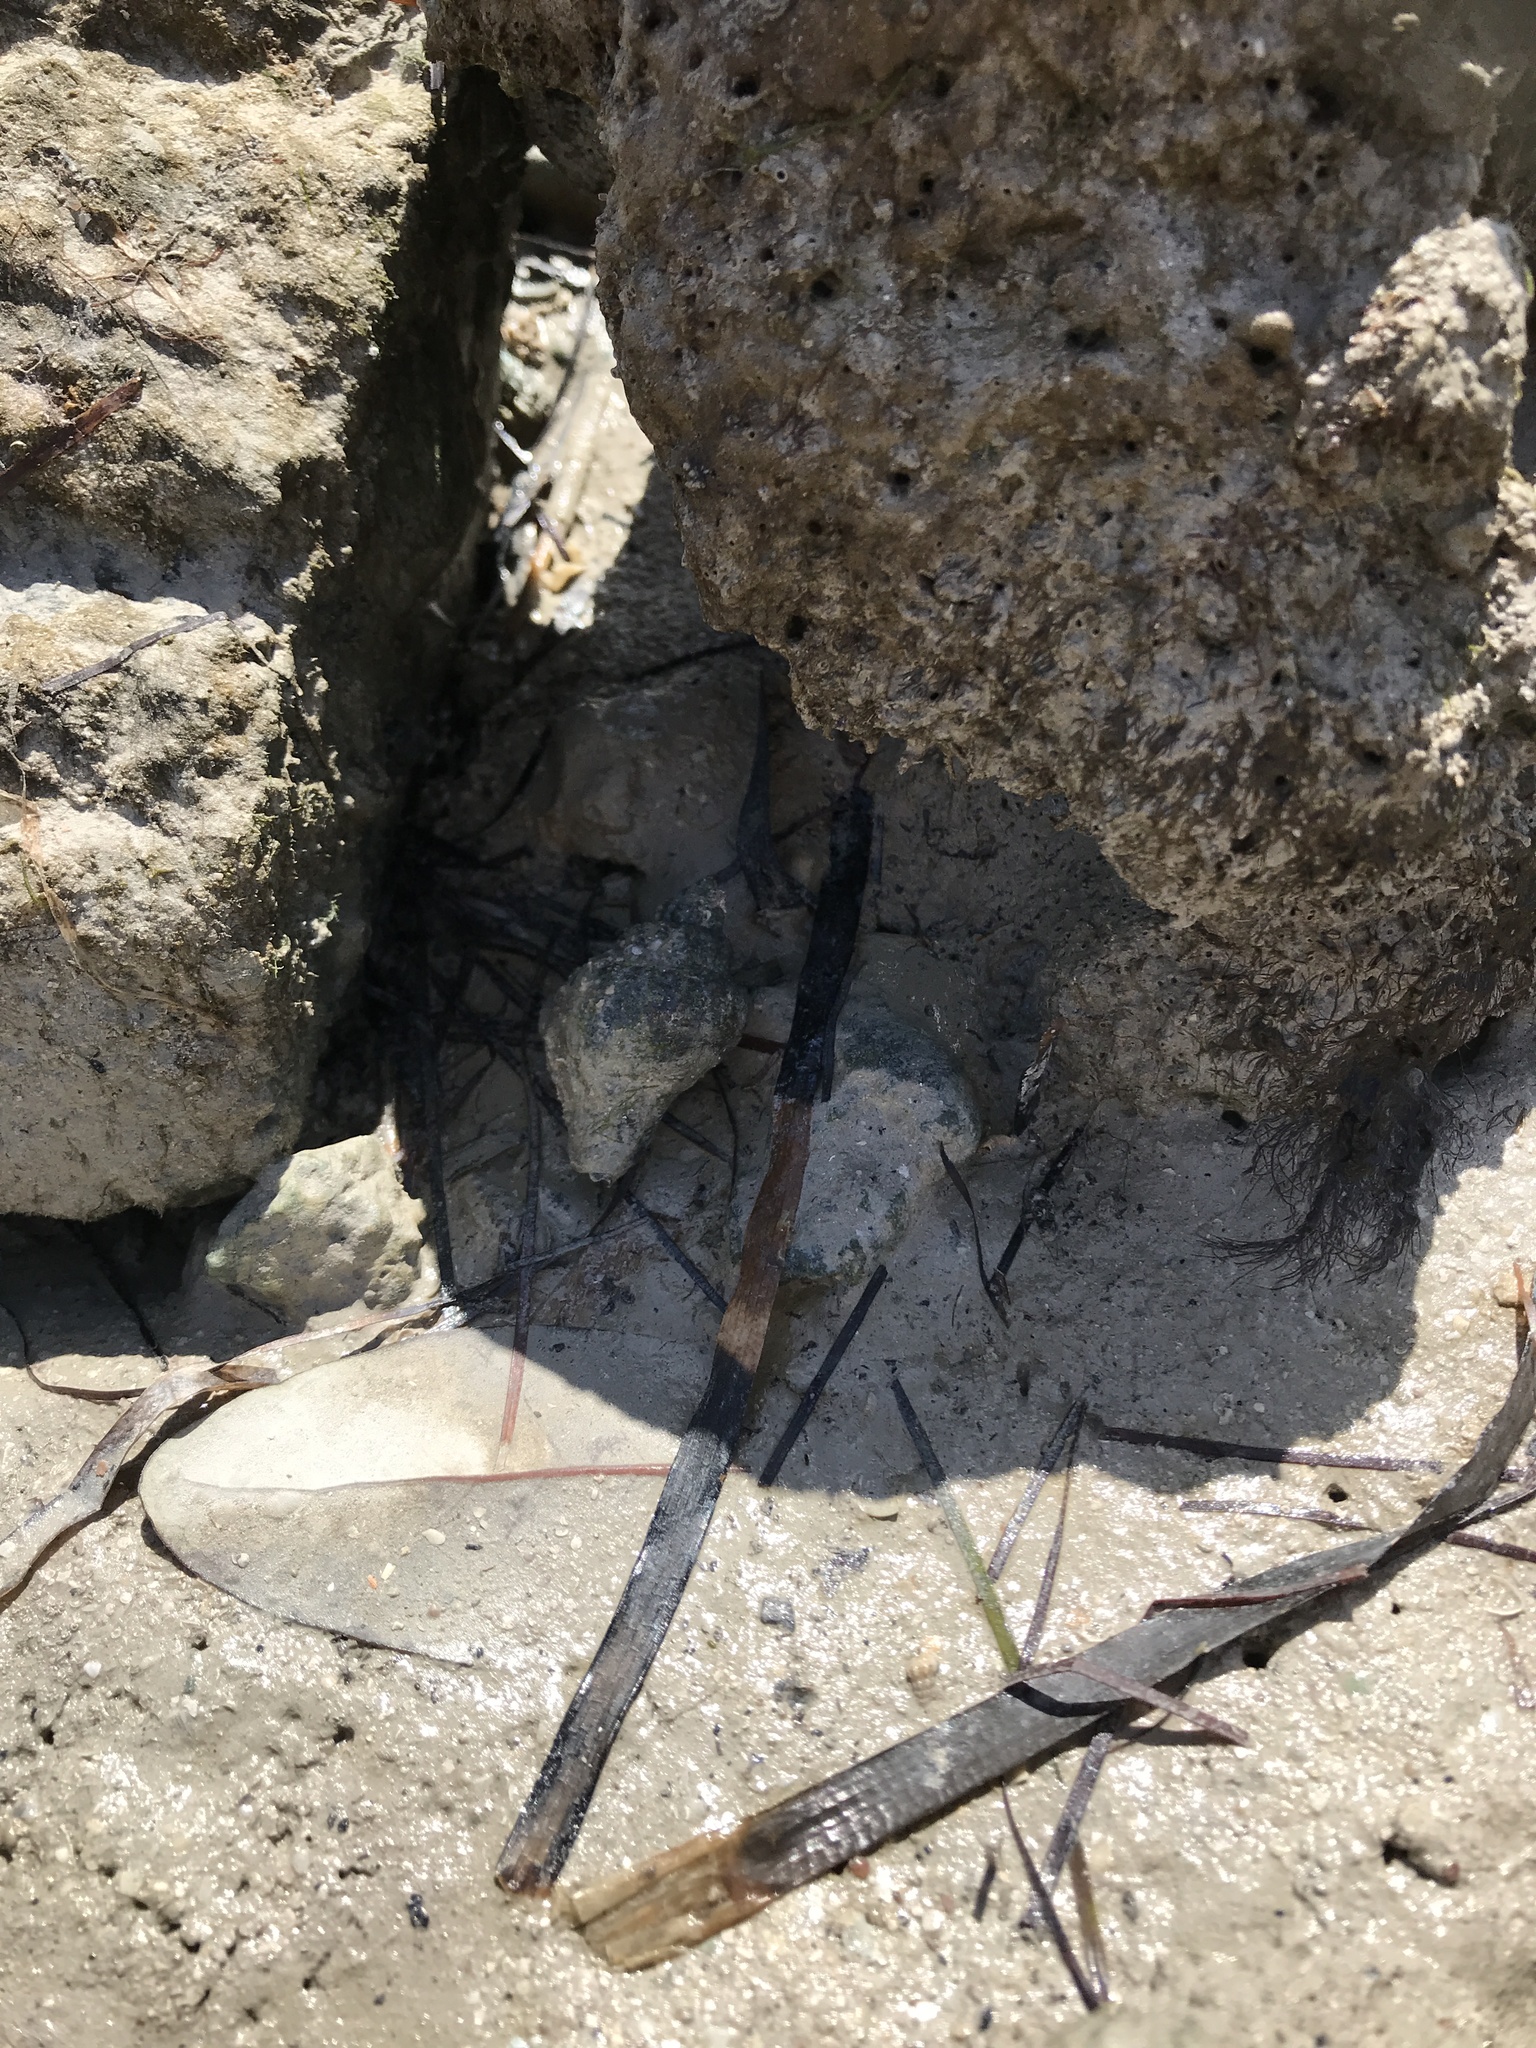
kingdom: Animalia
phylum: Mollusca
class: Gastropoda
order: Neogastropoda
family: Melongenidae
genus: Melongena
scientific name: Melongena corona
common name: American crown conch
